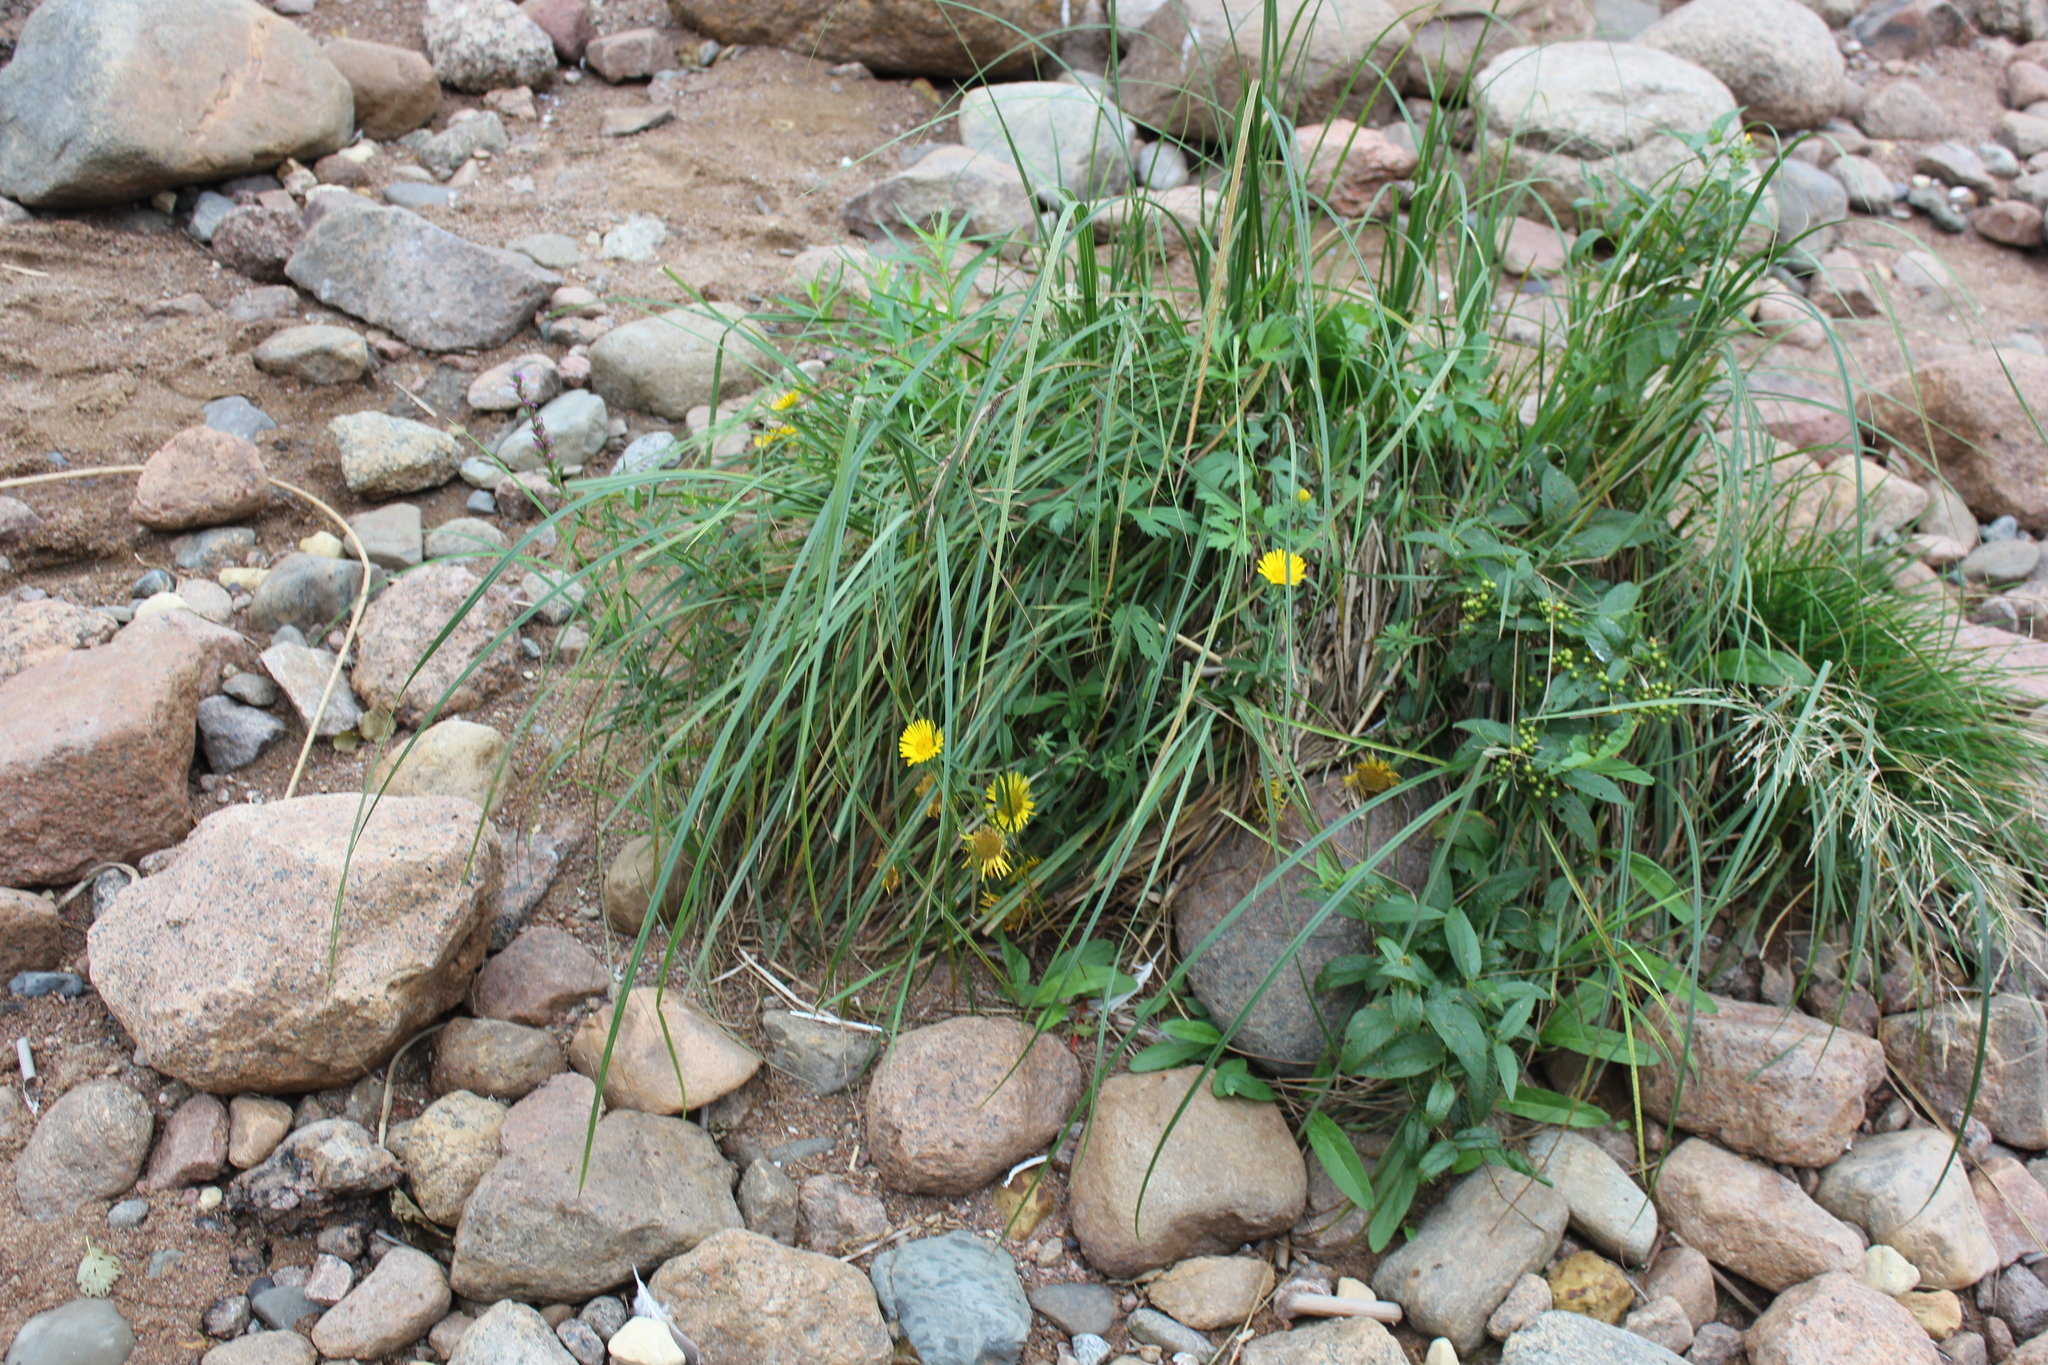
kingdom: Plantae
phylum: Tracheophyta
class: Magnoliopsida
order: Asterales
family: Asteraceae
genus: Pentanema
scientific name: Pentanema britannicum
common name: British elecampane
